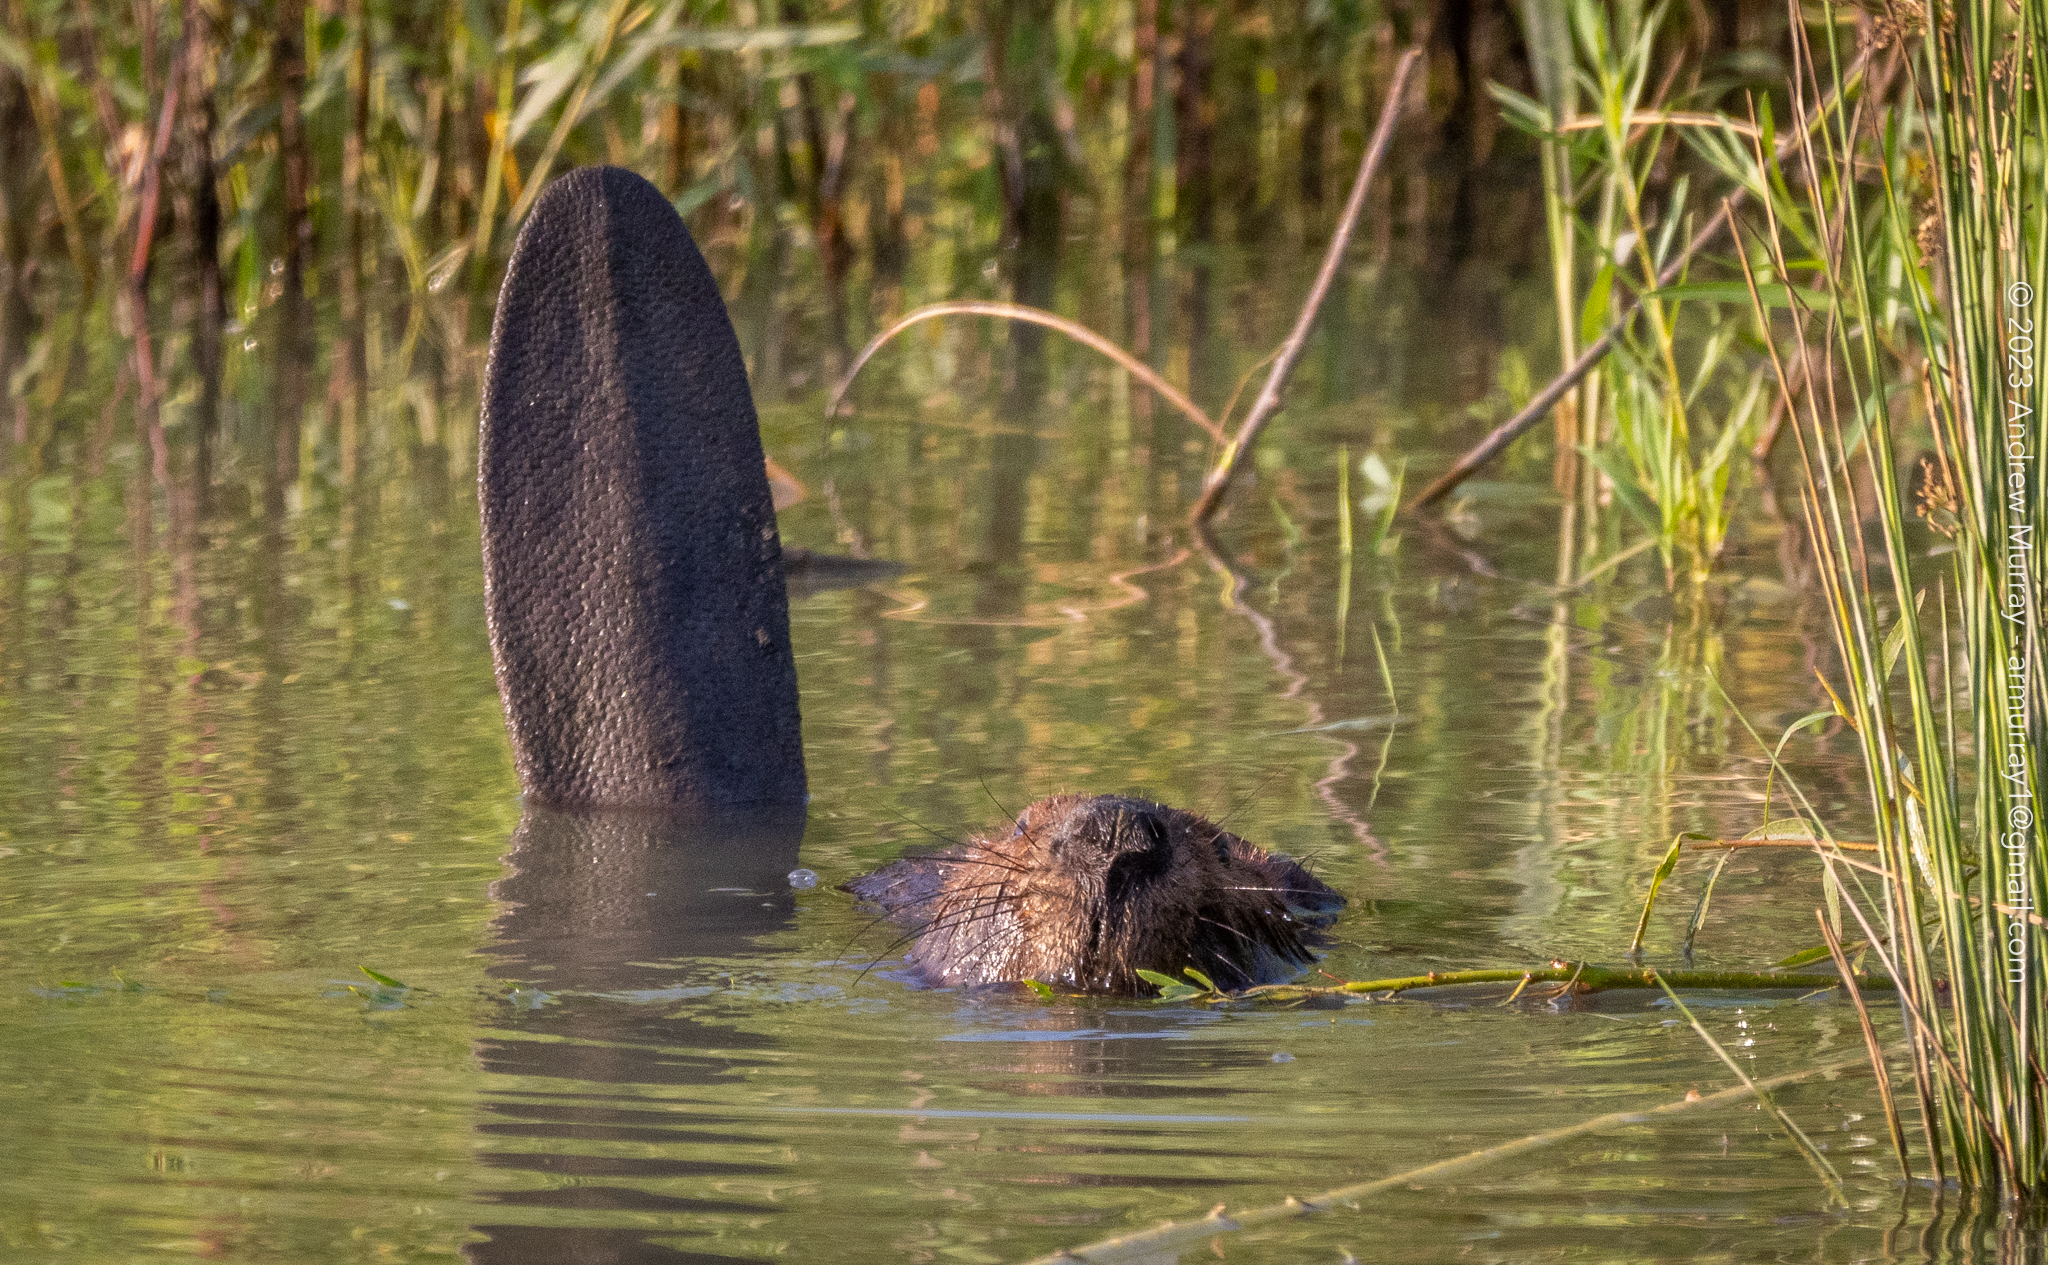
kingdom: Animalia
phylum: Chordata
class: Mammalia
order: Rodentia
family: Castoridae
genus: Castor
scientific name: Castor canadensis
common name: American beaver
